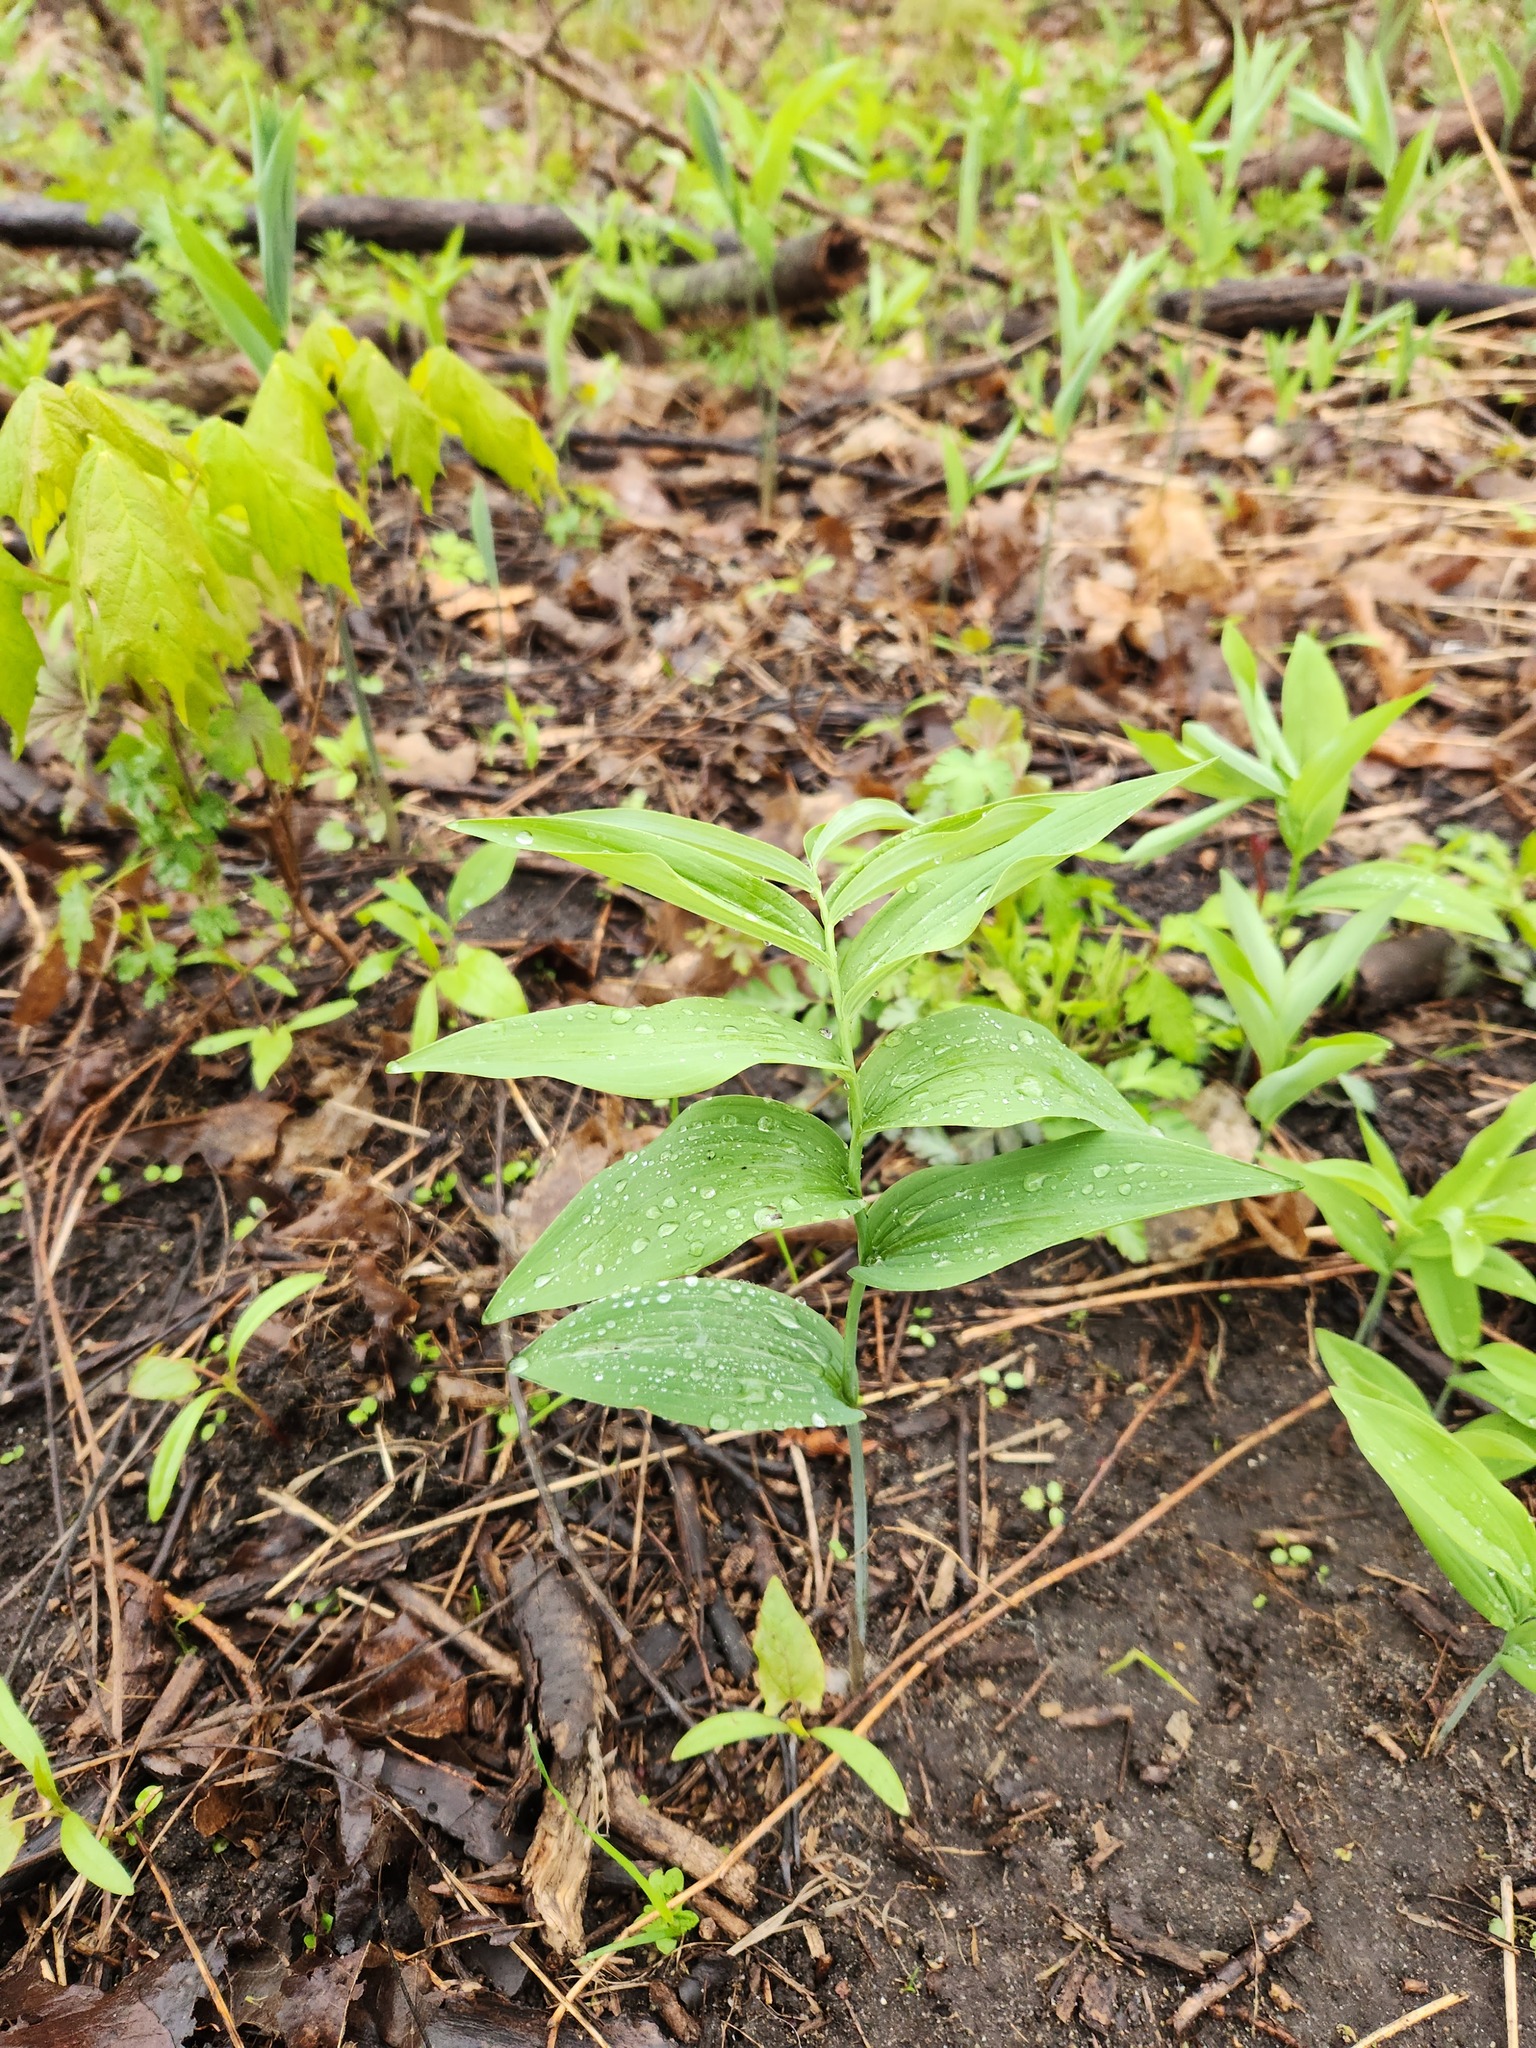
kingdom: Plantae
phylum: Tracheophyta
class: Liliopsida
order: Asparagales
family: Asparagaceae
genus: Polygonatum
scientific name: Polygonatum biflorum
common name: American solomon's-seal
